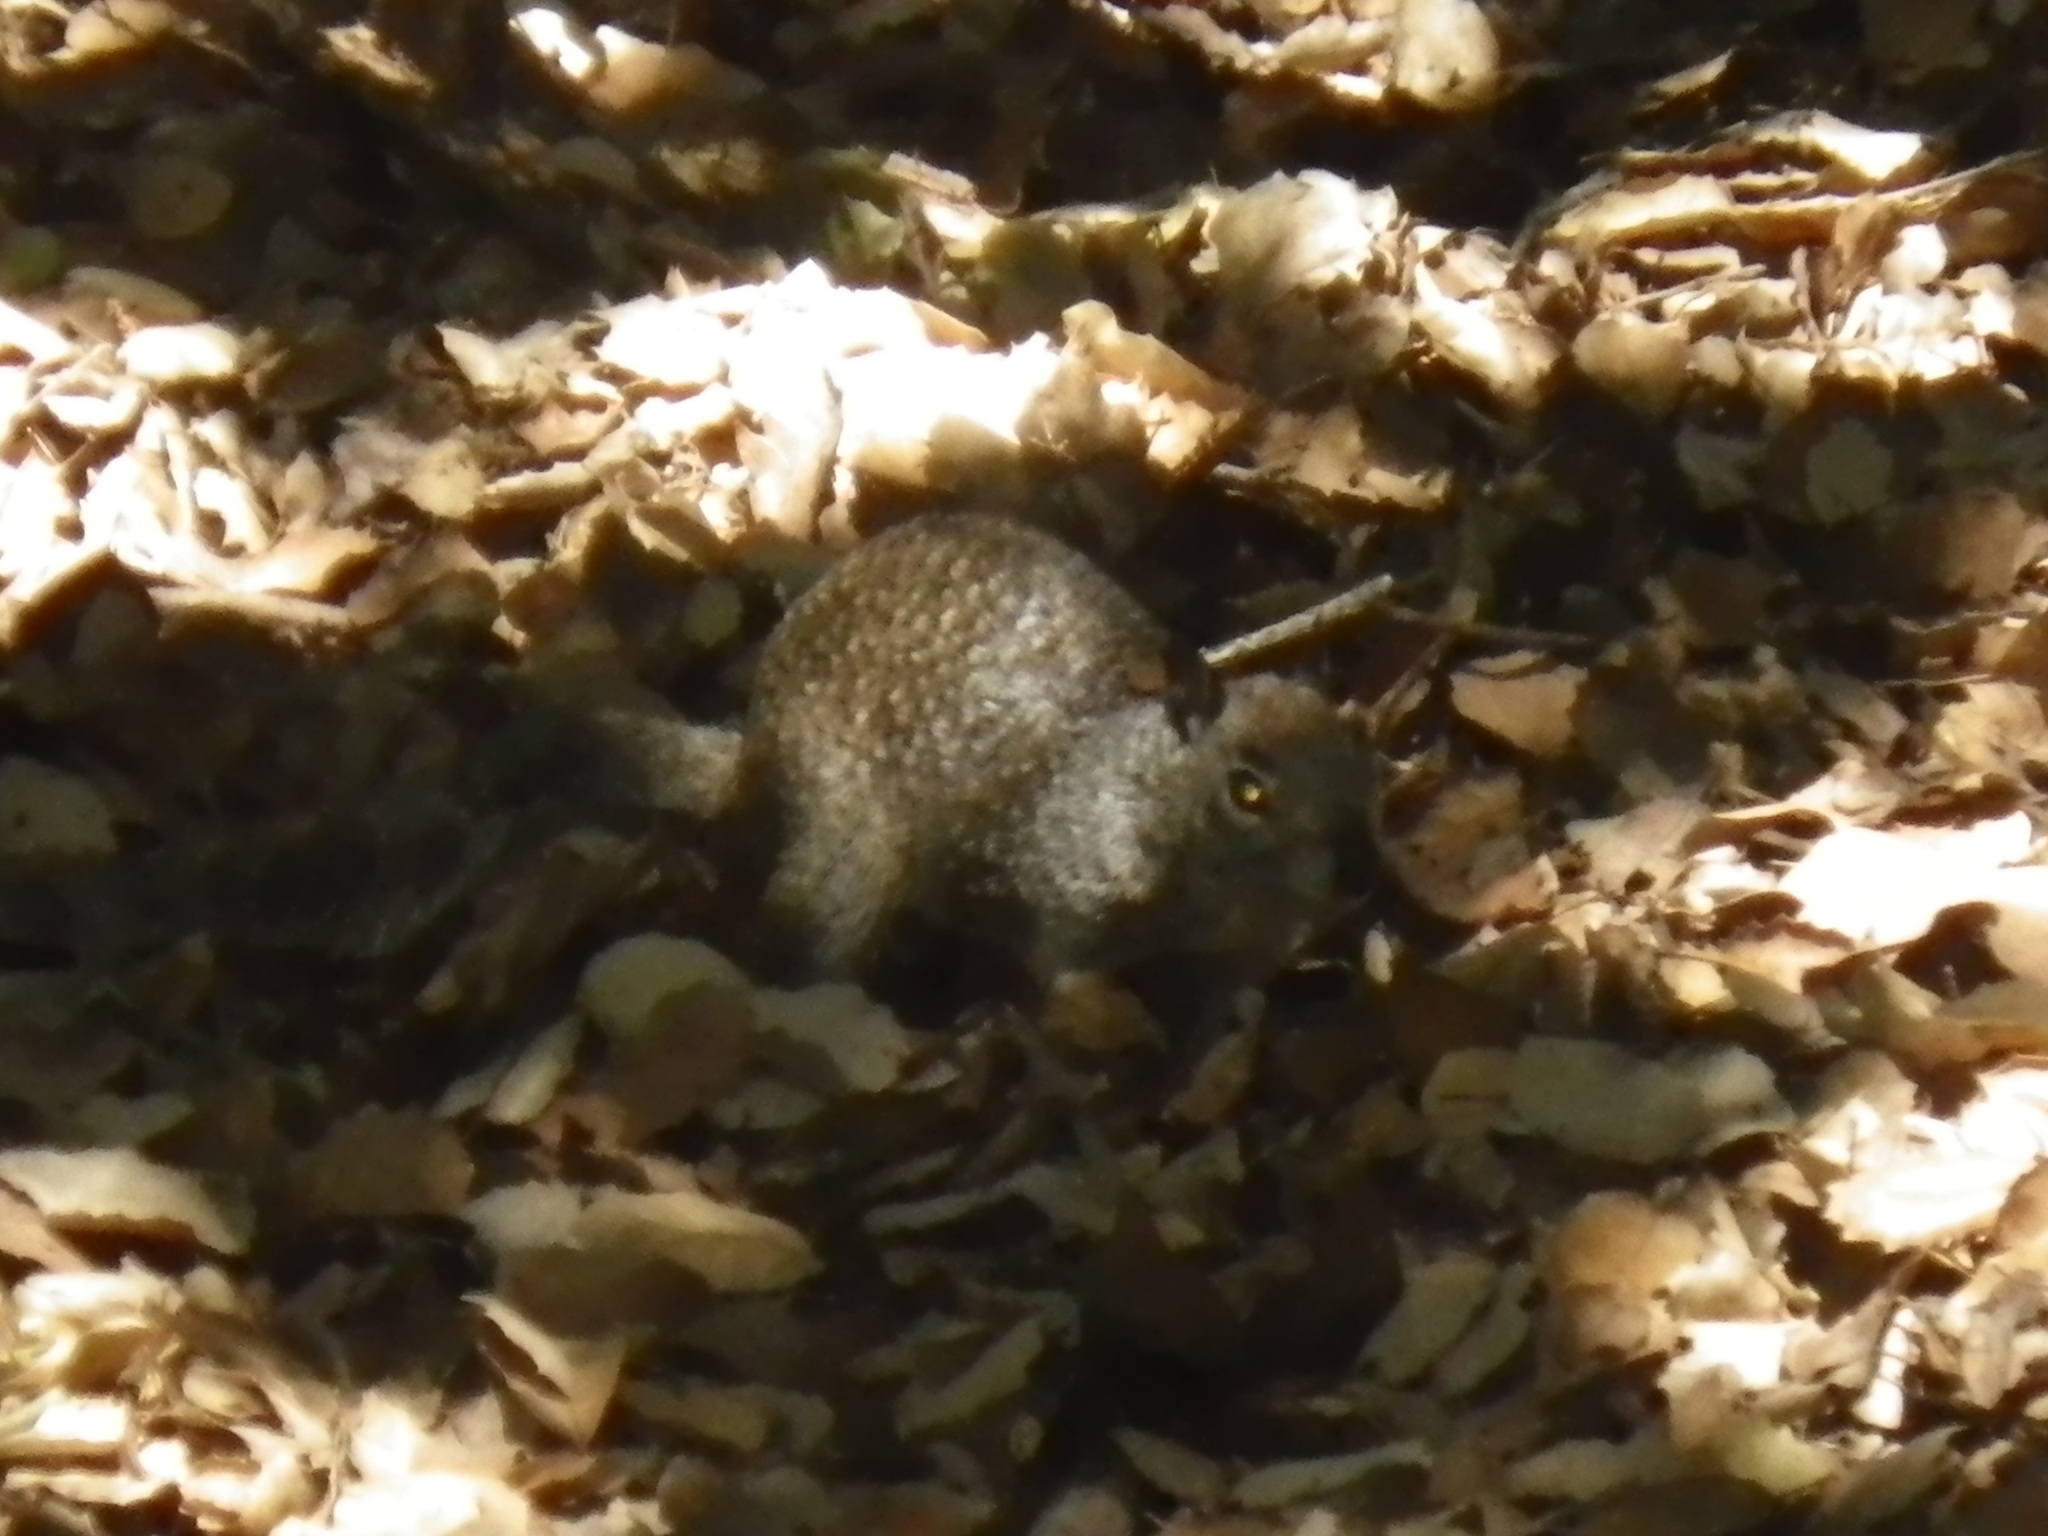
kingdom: Animalia
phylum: Chordata
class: Mammalia
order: Rodentia
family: Sciuridae
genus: Otospermophilus
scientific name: Otospermophilus beecheyi
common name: California ground squirrel
